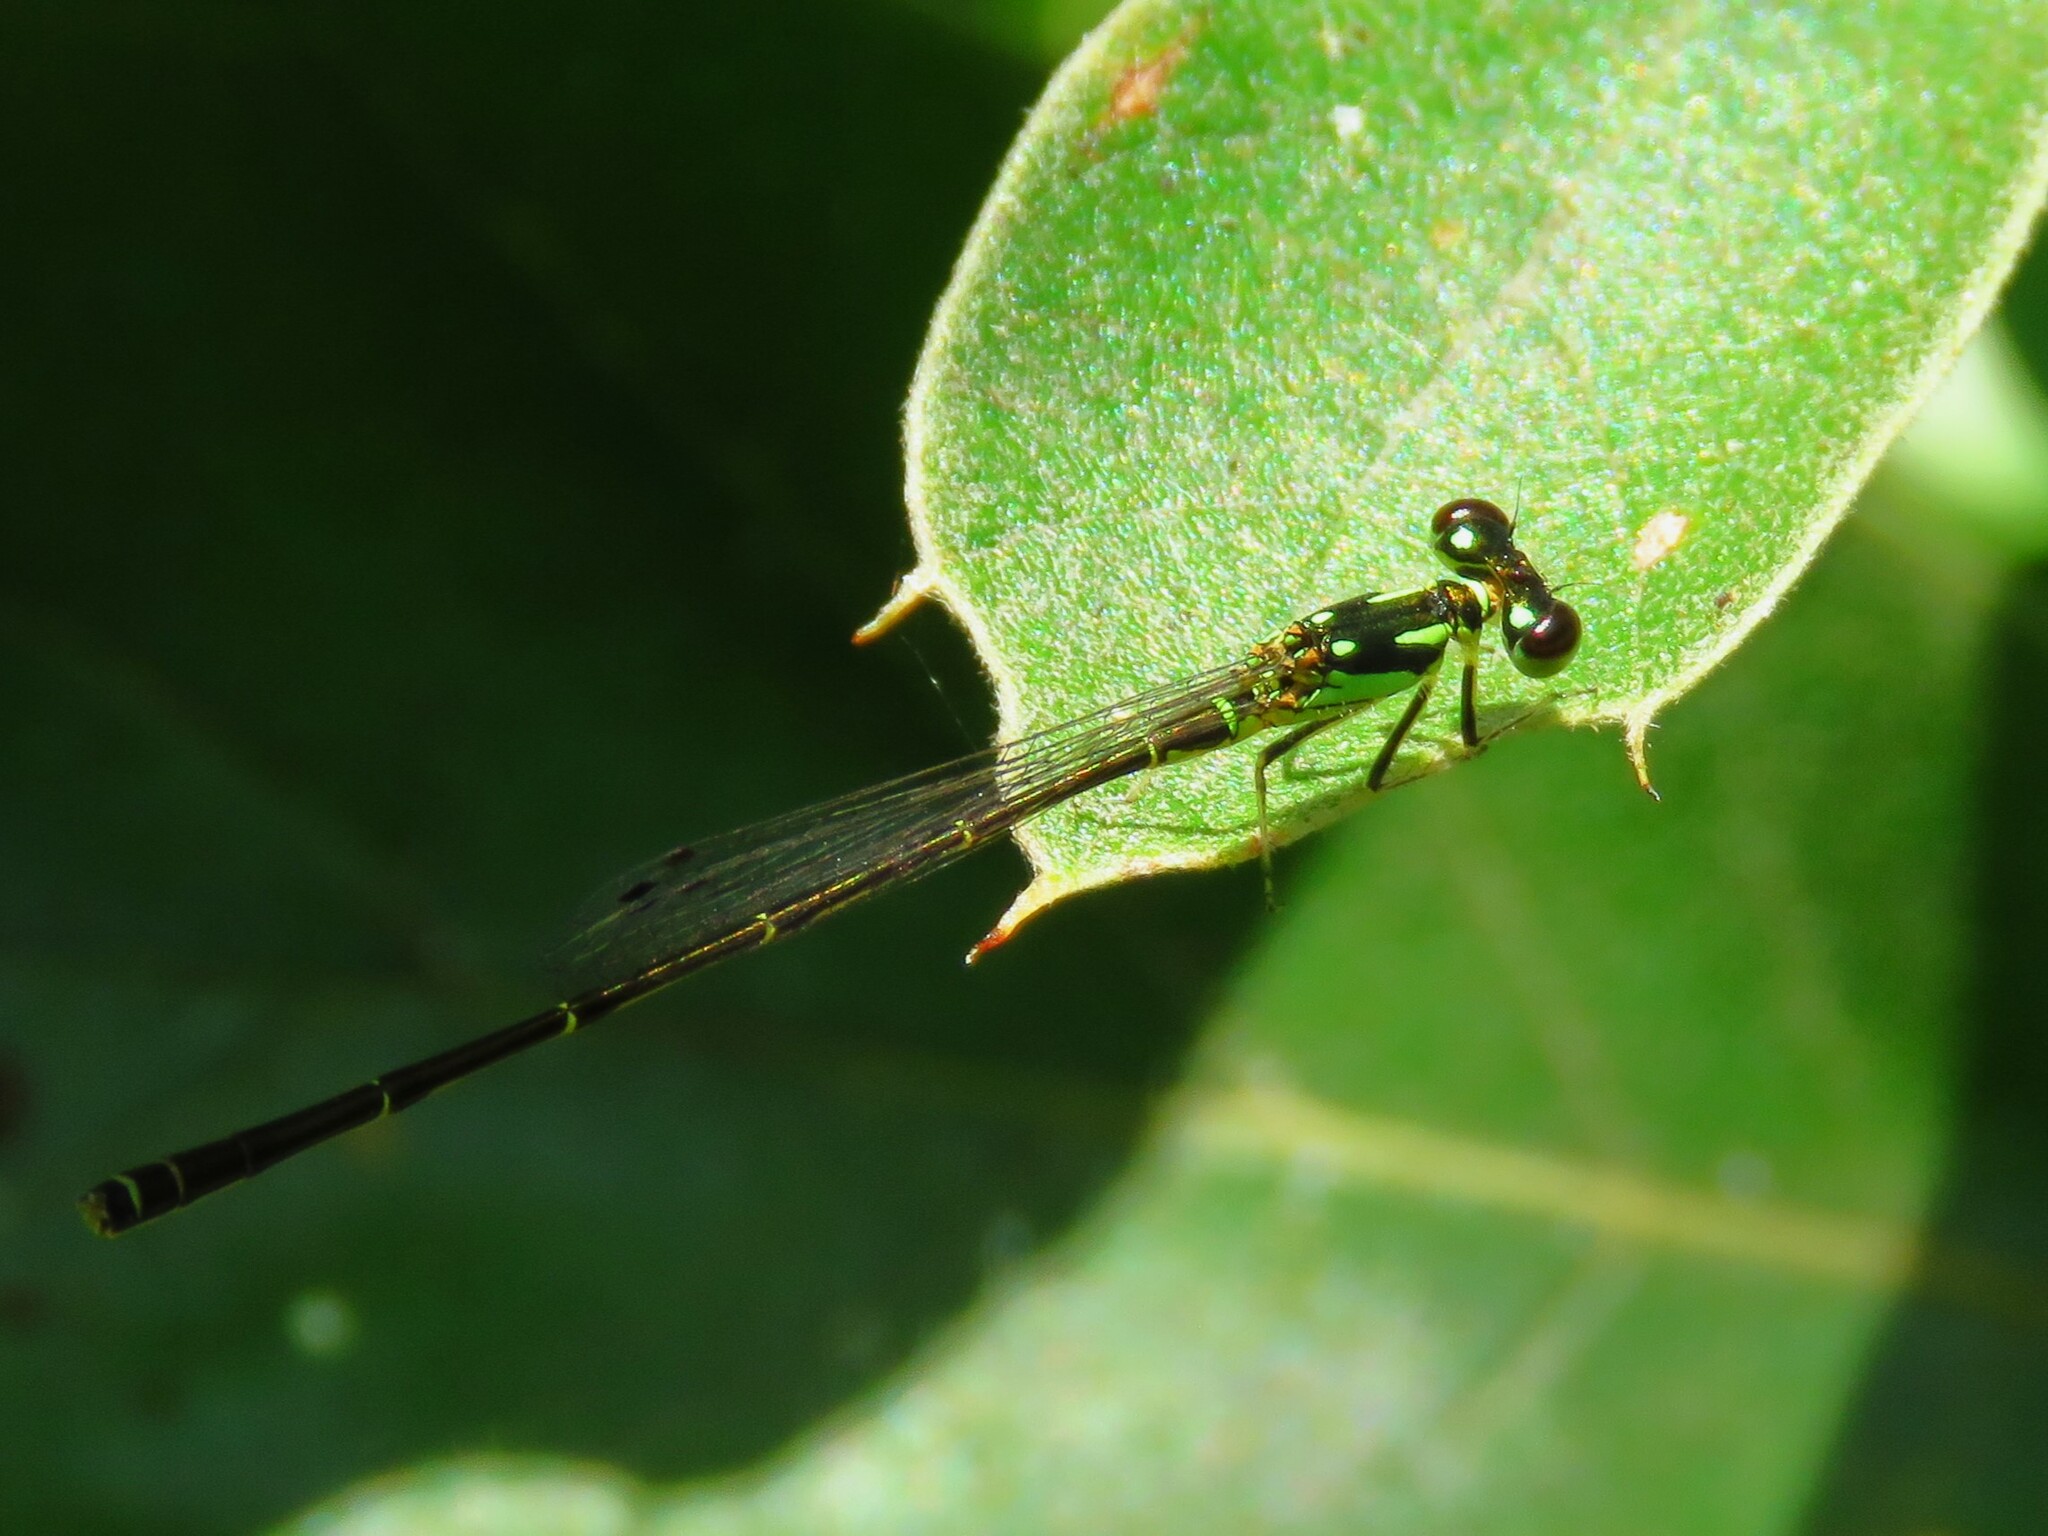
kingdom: Animalia
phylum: Arthropoda
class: Insecta
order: Odonata
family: Coenagrionidae
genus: Ischnura
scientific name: Ischnura posita
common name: Fragile forktail
